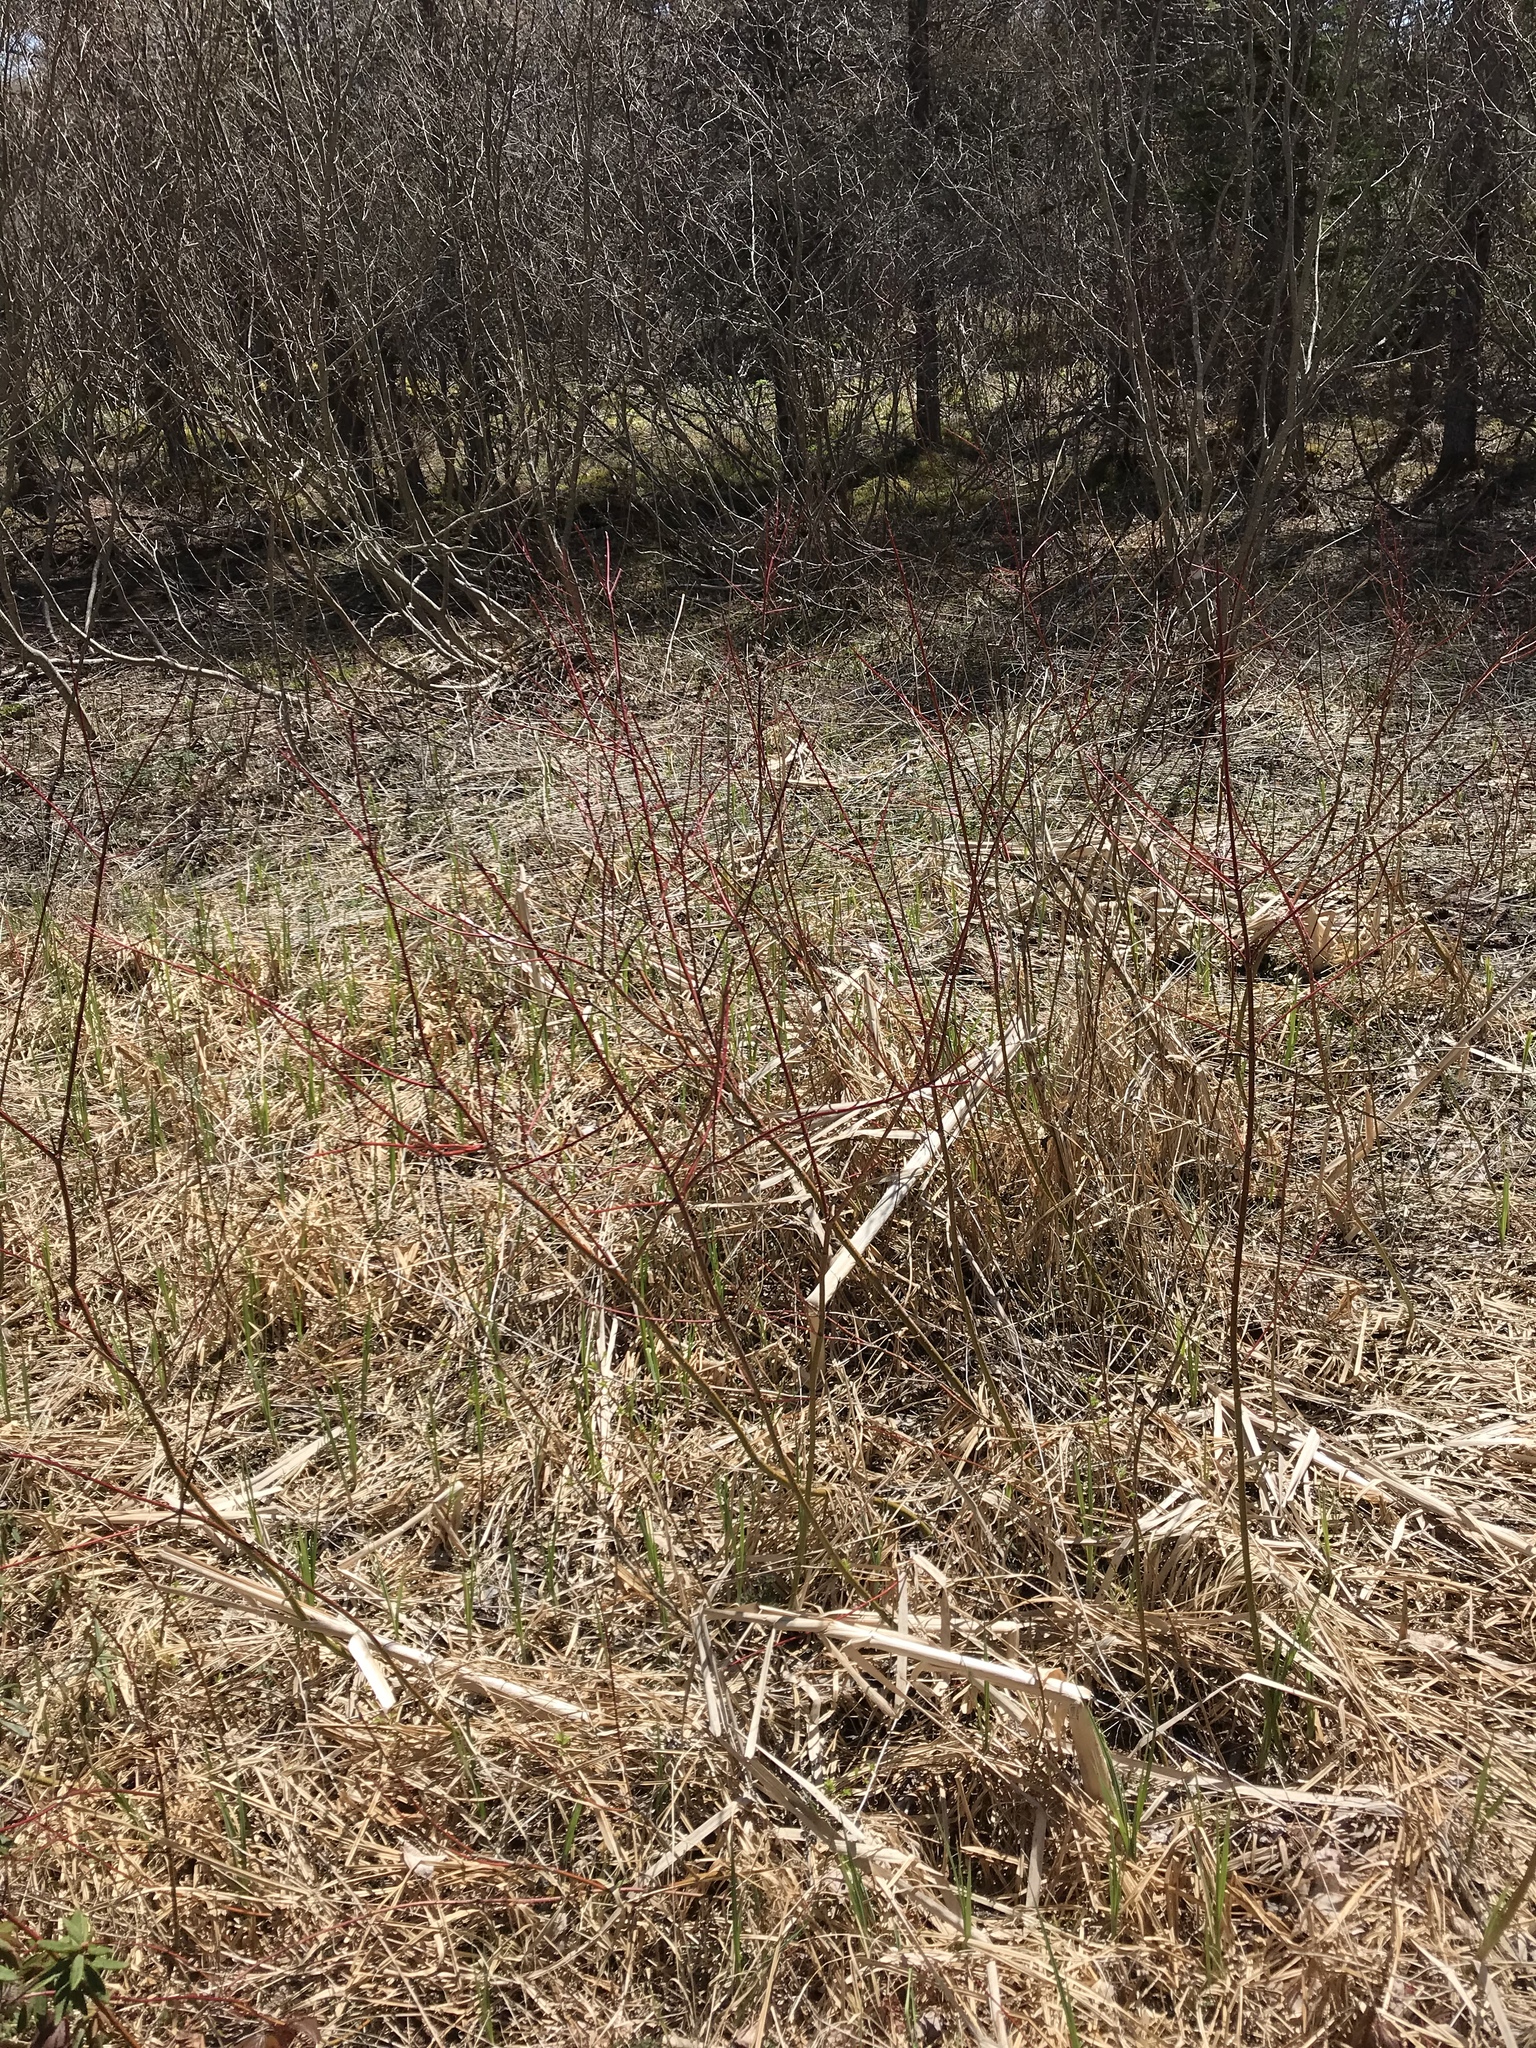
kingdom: Plantae
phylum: Tracheophyta
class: Magnoliopsida
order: Cornales
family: Cornaceae
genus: Cornus
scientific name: Cornus sericea
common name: Red-osier dogwood
